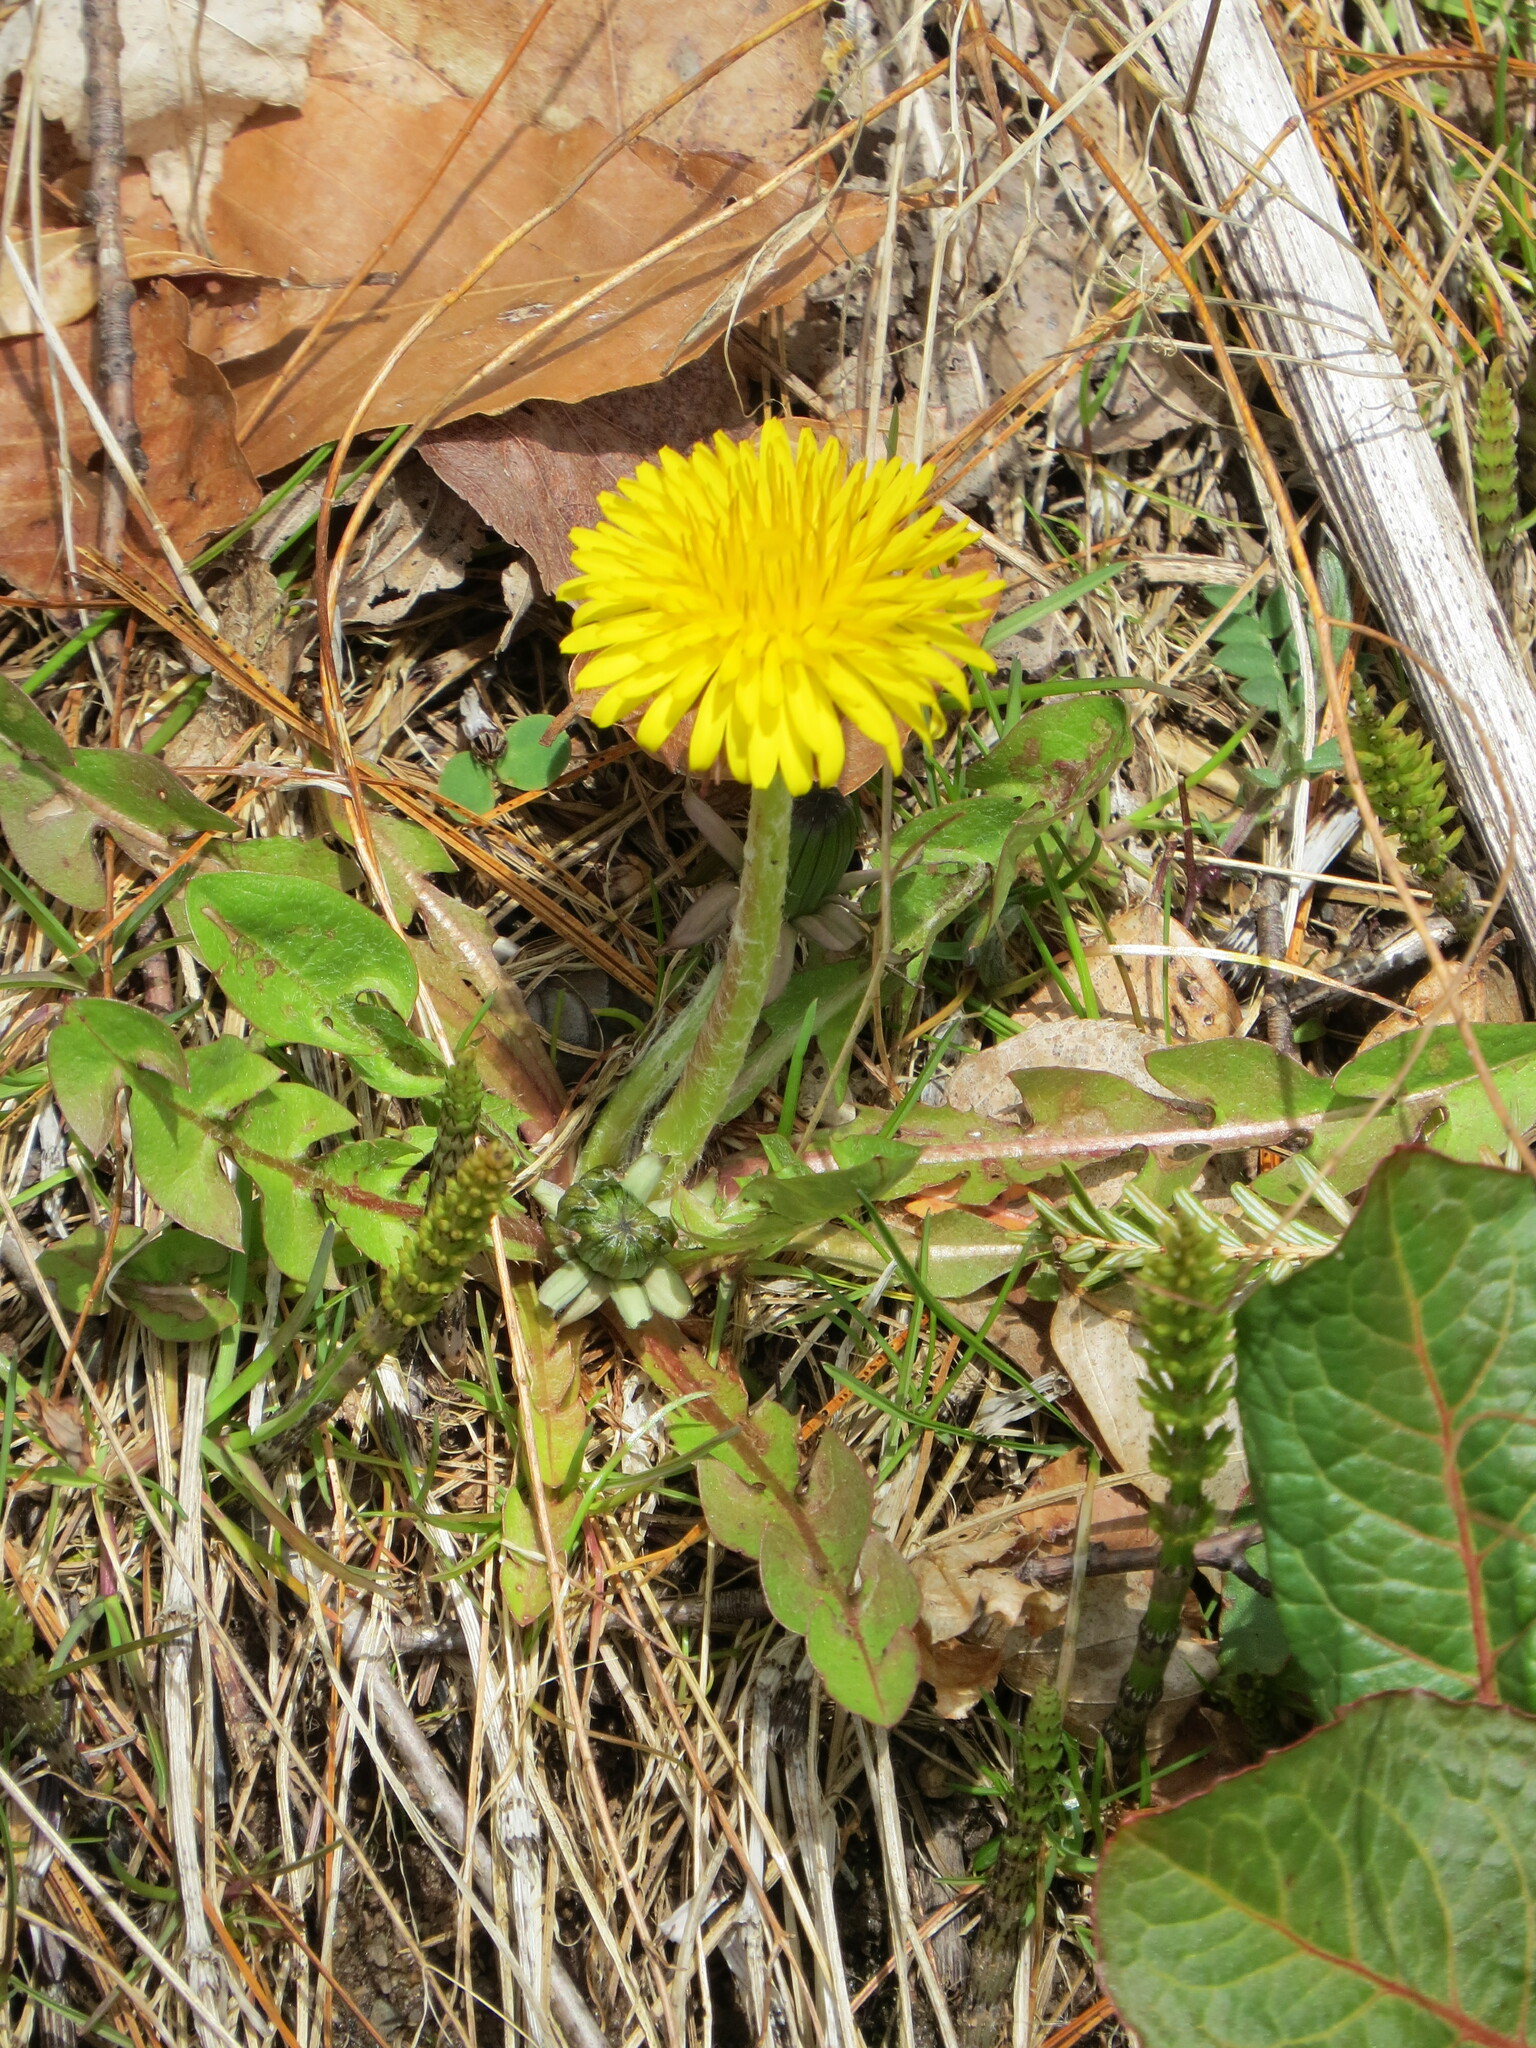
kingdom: Plantae
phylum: Tracheophyta
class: Magnoliopsida
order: Asterales
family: Asteraceae
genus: Taraxacum
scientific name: Taraxacum officinale
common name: Common dandelion
